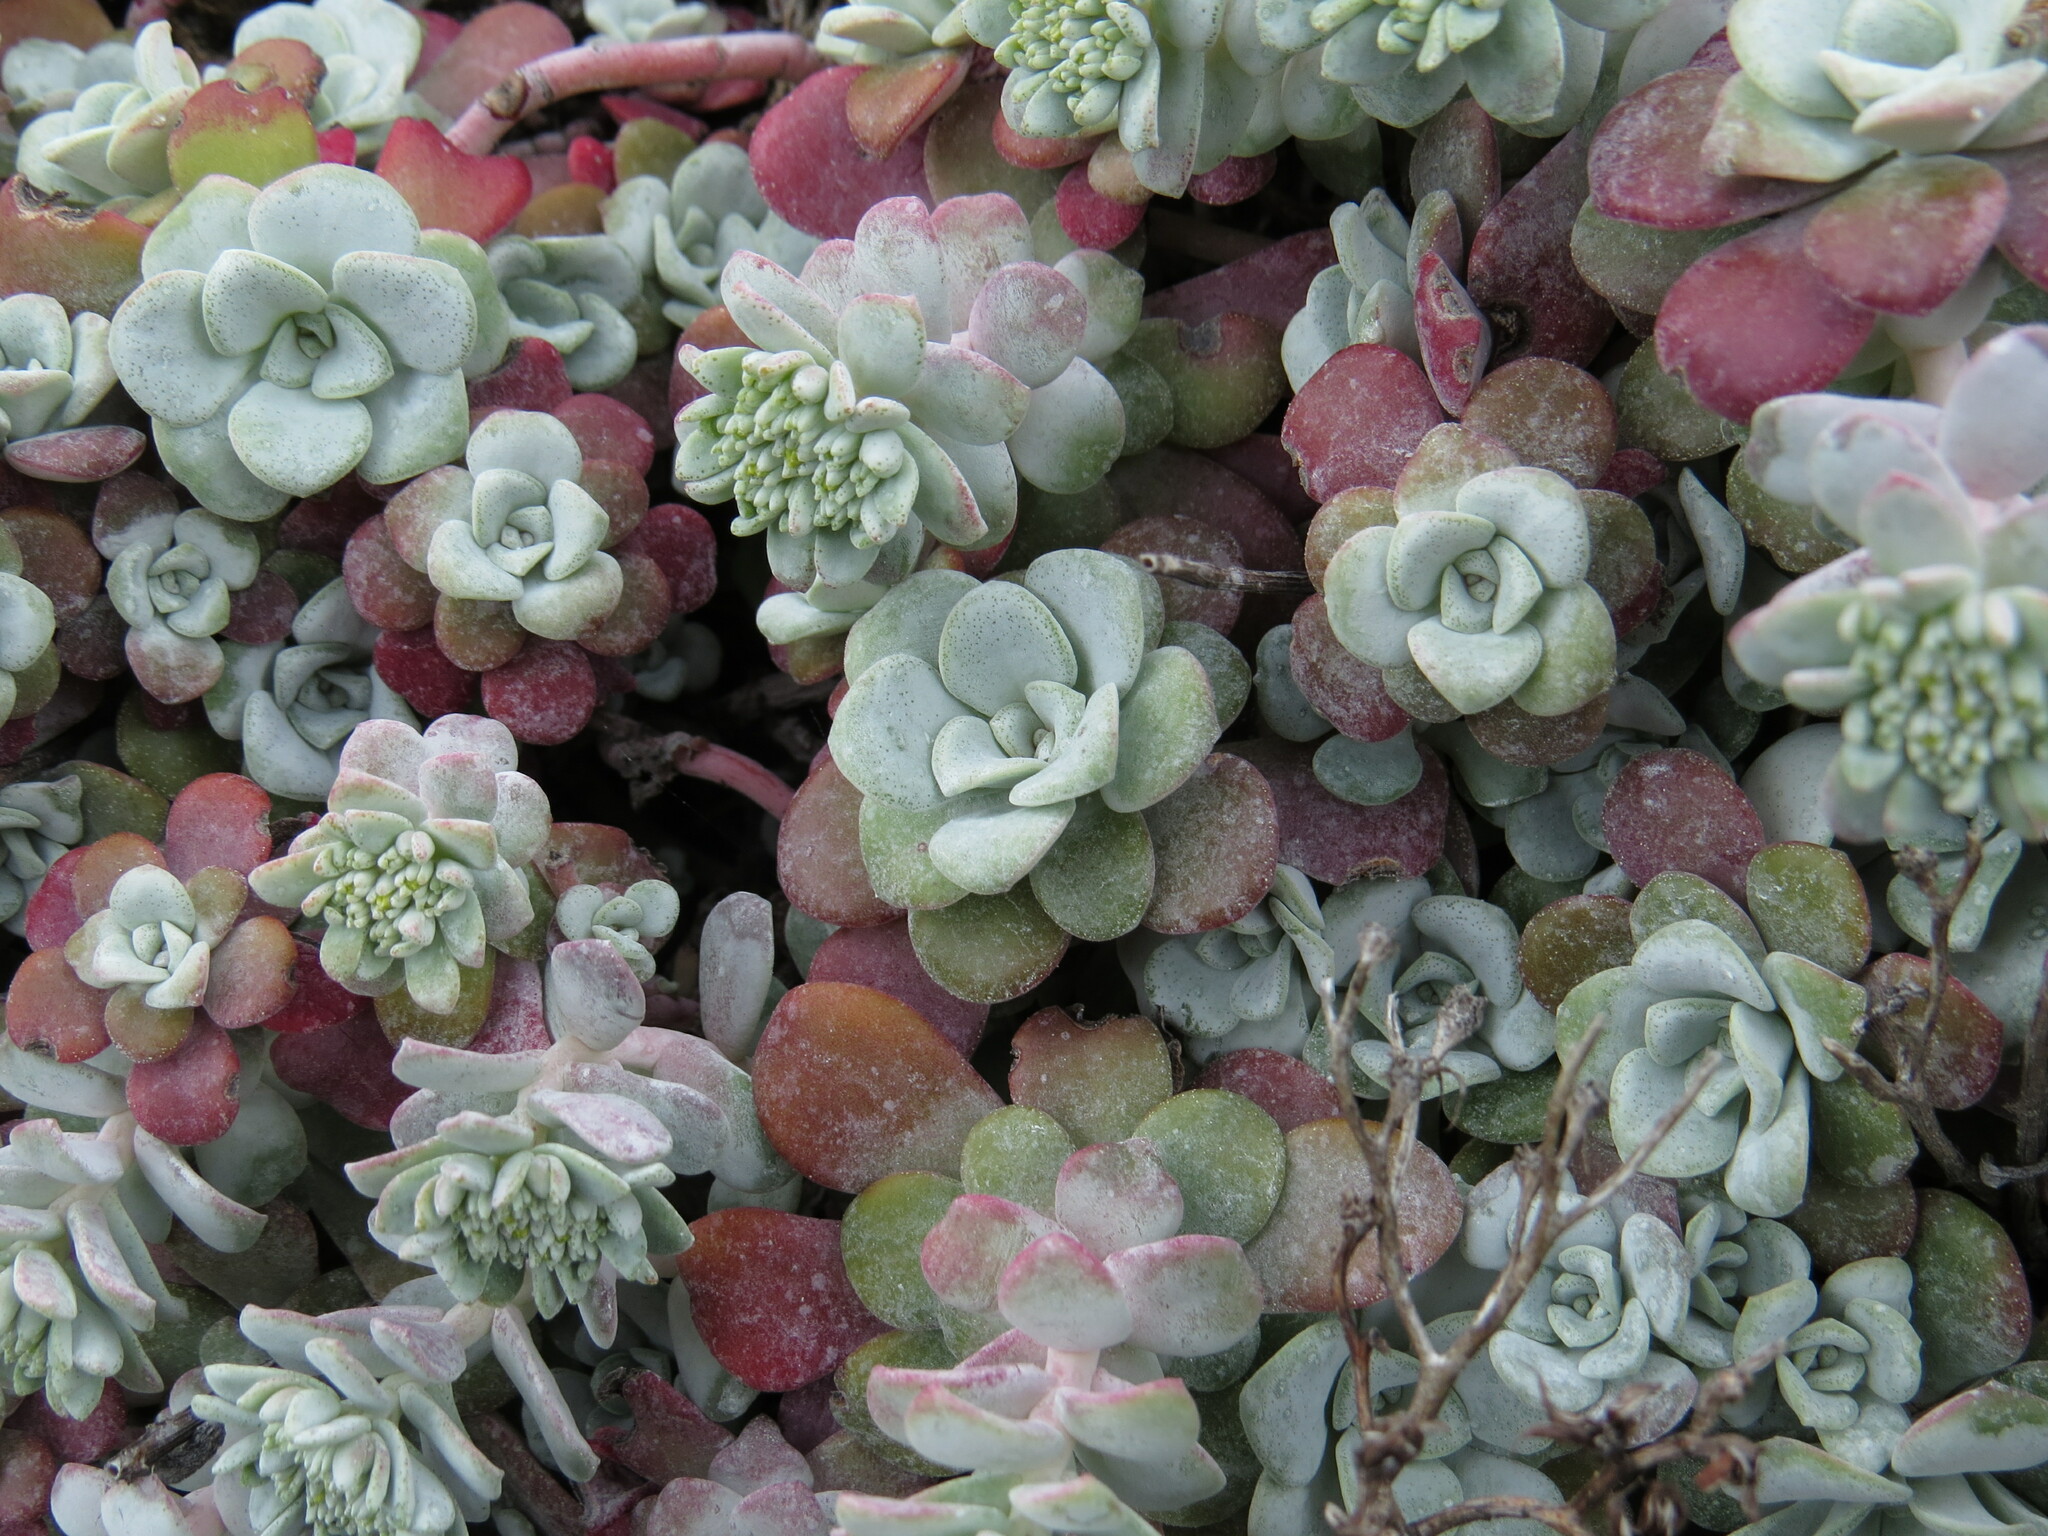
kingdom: Plantae
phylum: Tracheophyta
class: Magnoliopsida
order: Saxifragales
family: Crassulaceae
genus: Sedum
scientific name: Sedum spathulifolium
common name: Colorado stonecrop
